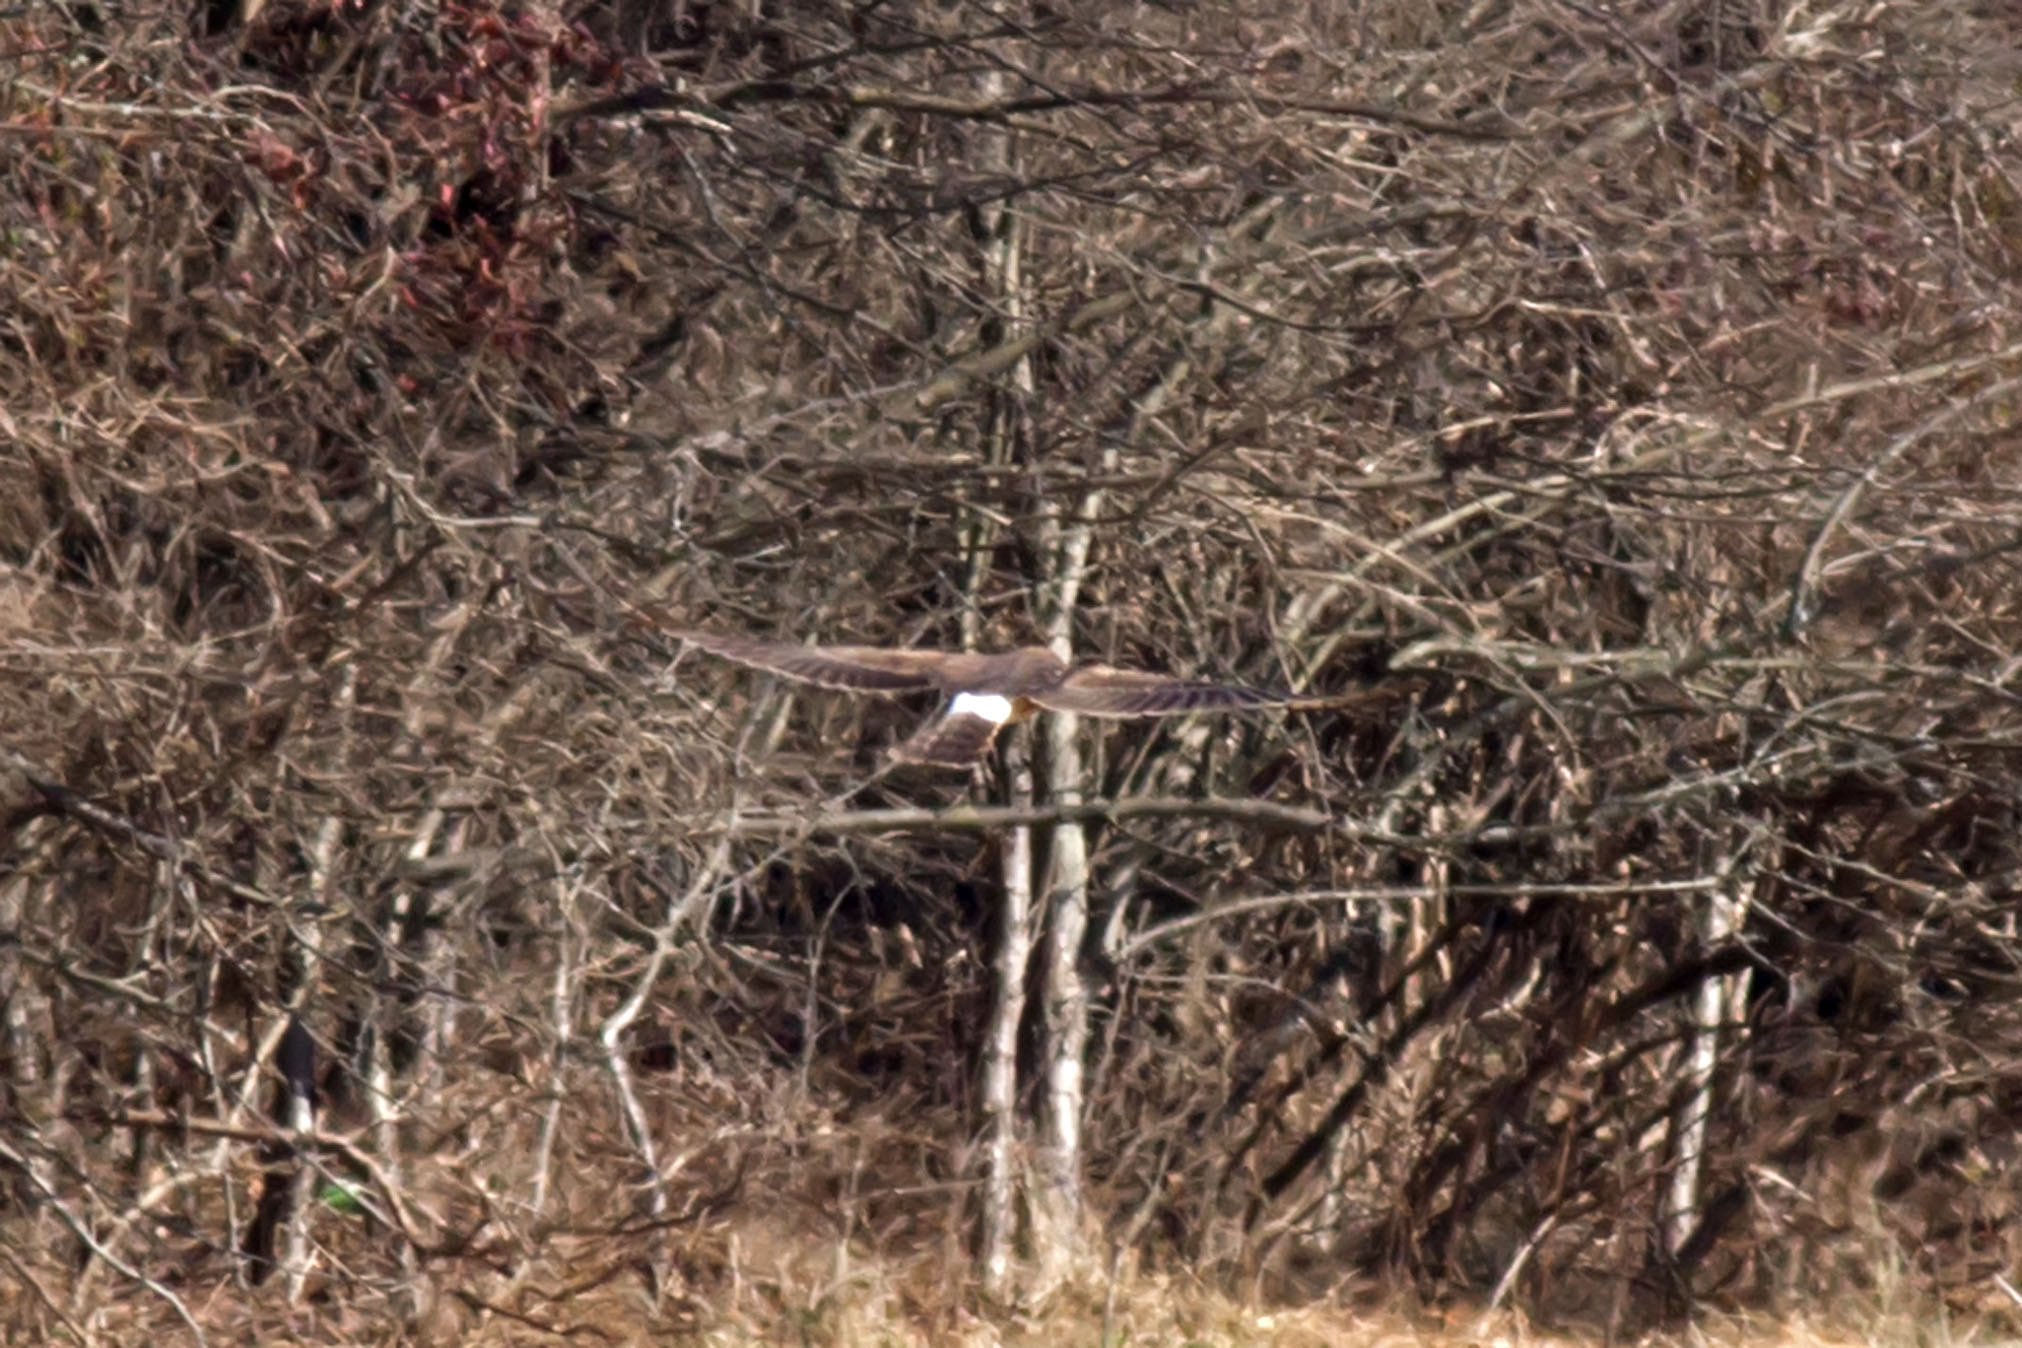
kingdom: Animalia
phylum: Chordata
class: Aves
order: Accipitriformes
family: Accipitridae
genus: Circus
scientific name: Circus cyaneus
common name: Hen harrier
